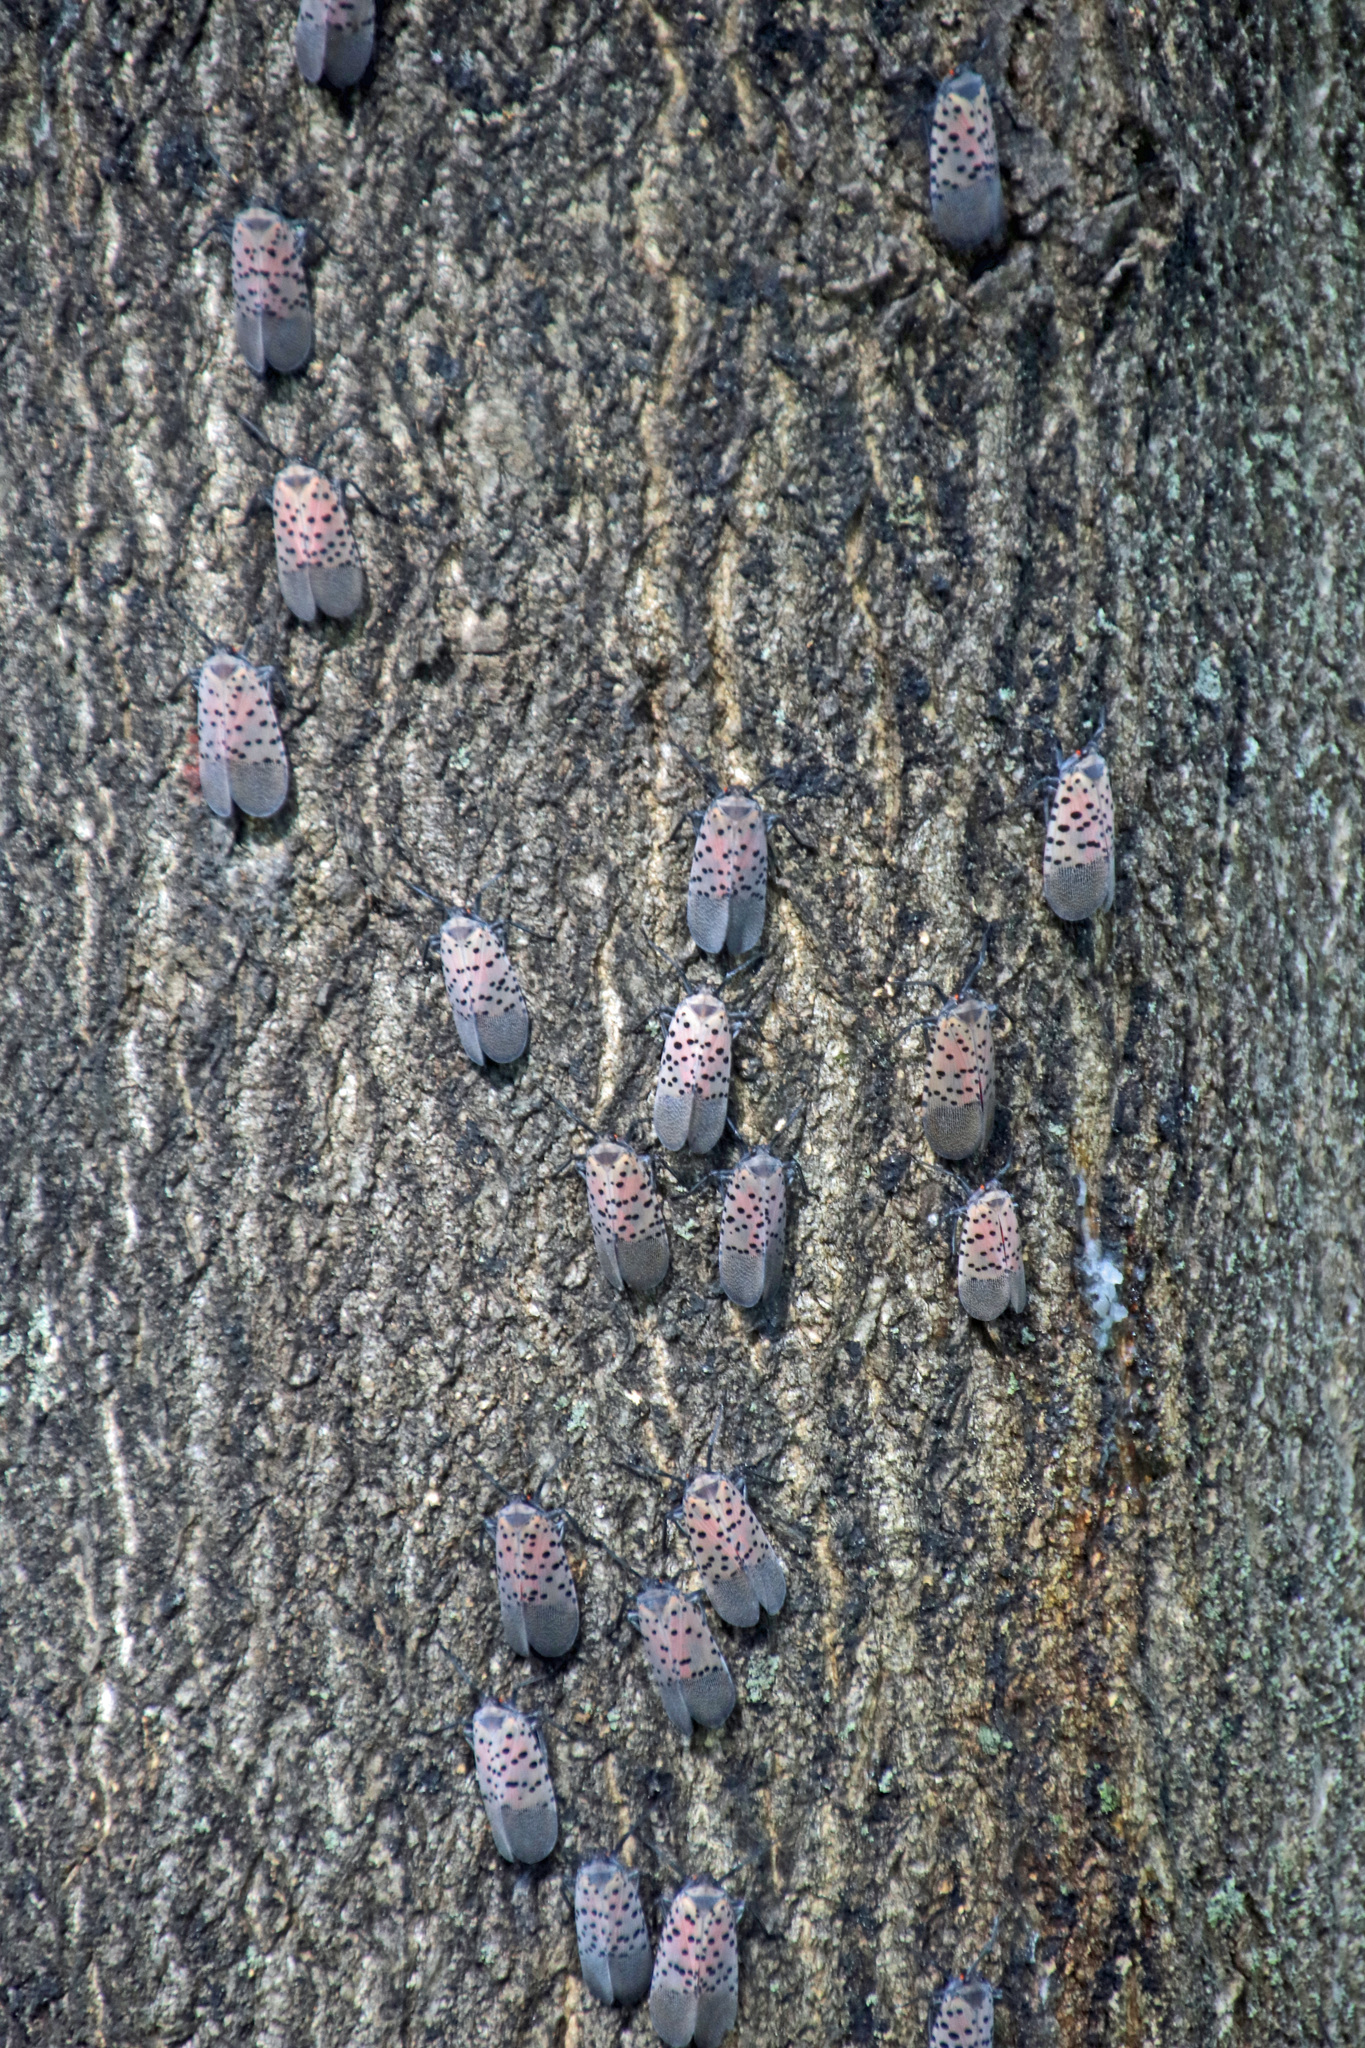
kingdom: Animalia
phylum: Arthropoda
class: Insecta
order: Hemiptera
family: Fulgoridae
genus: Lycorma
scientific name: Lycorma delicatula
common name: Spotted lanternfly
